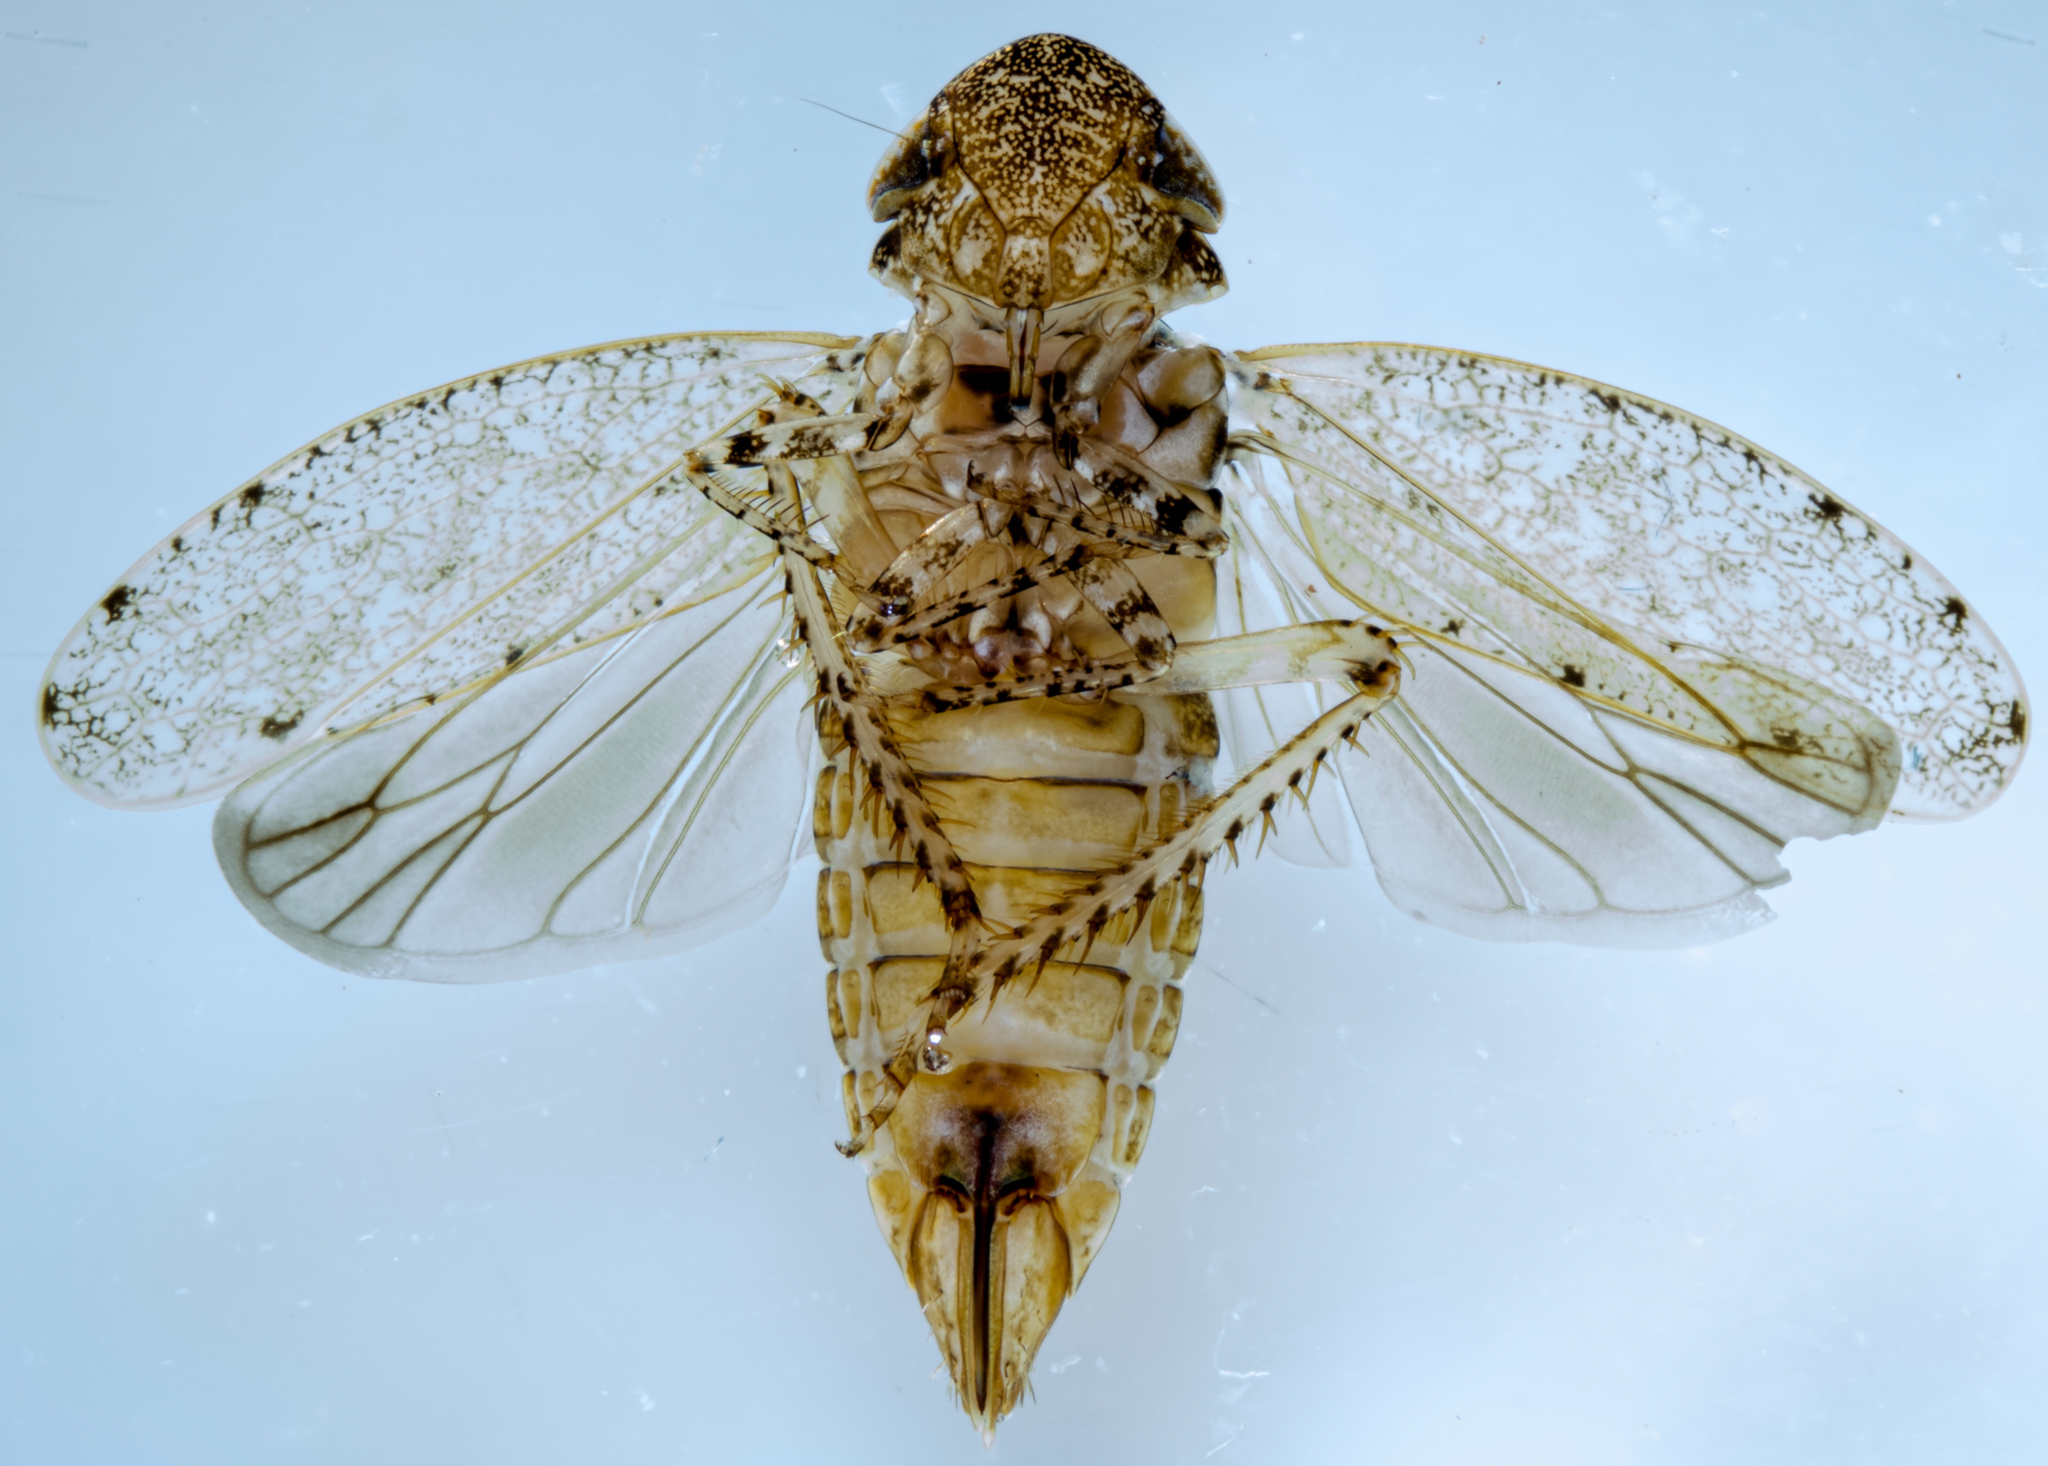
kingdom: Animalia
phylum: Arthropoda
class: Insecta
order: Hemiptera
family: Cicadellidae
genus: Paraphlepsius
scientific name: Paraphlepsius occidentalis
